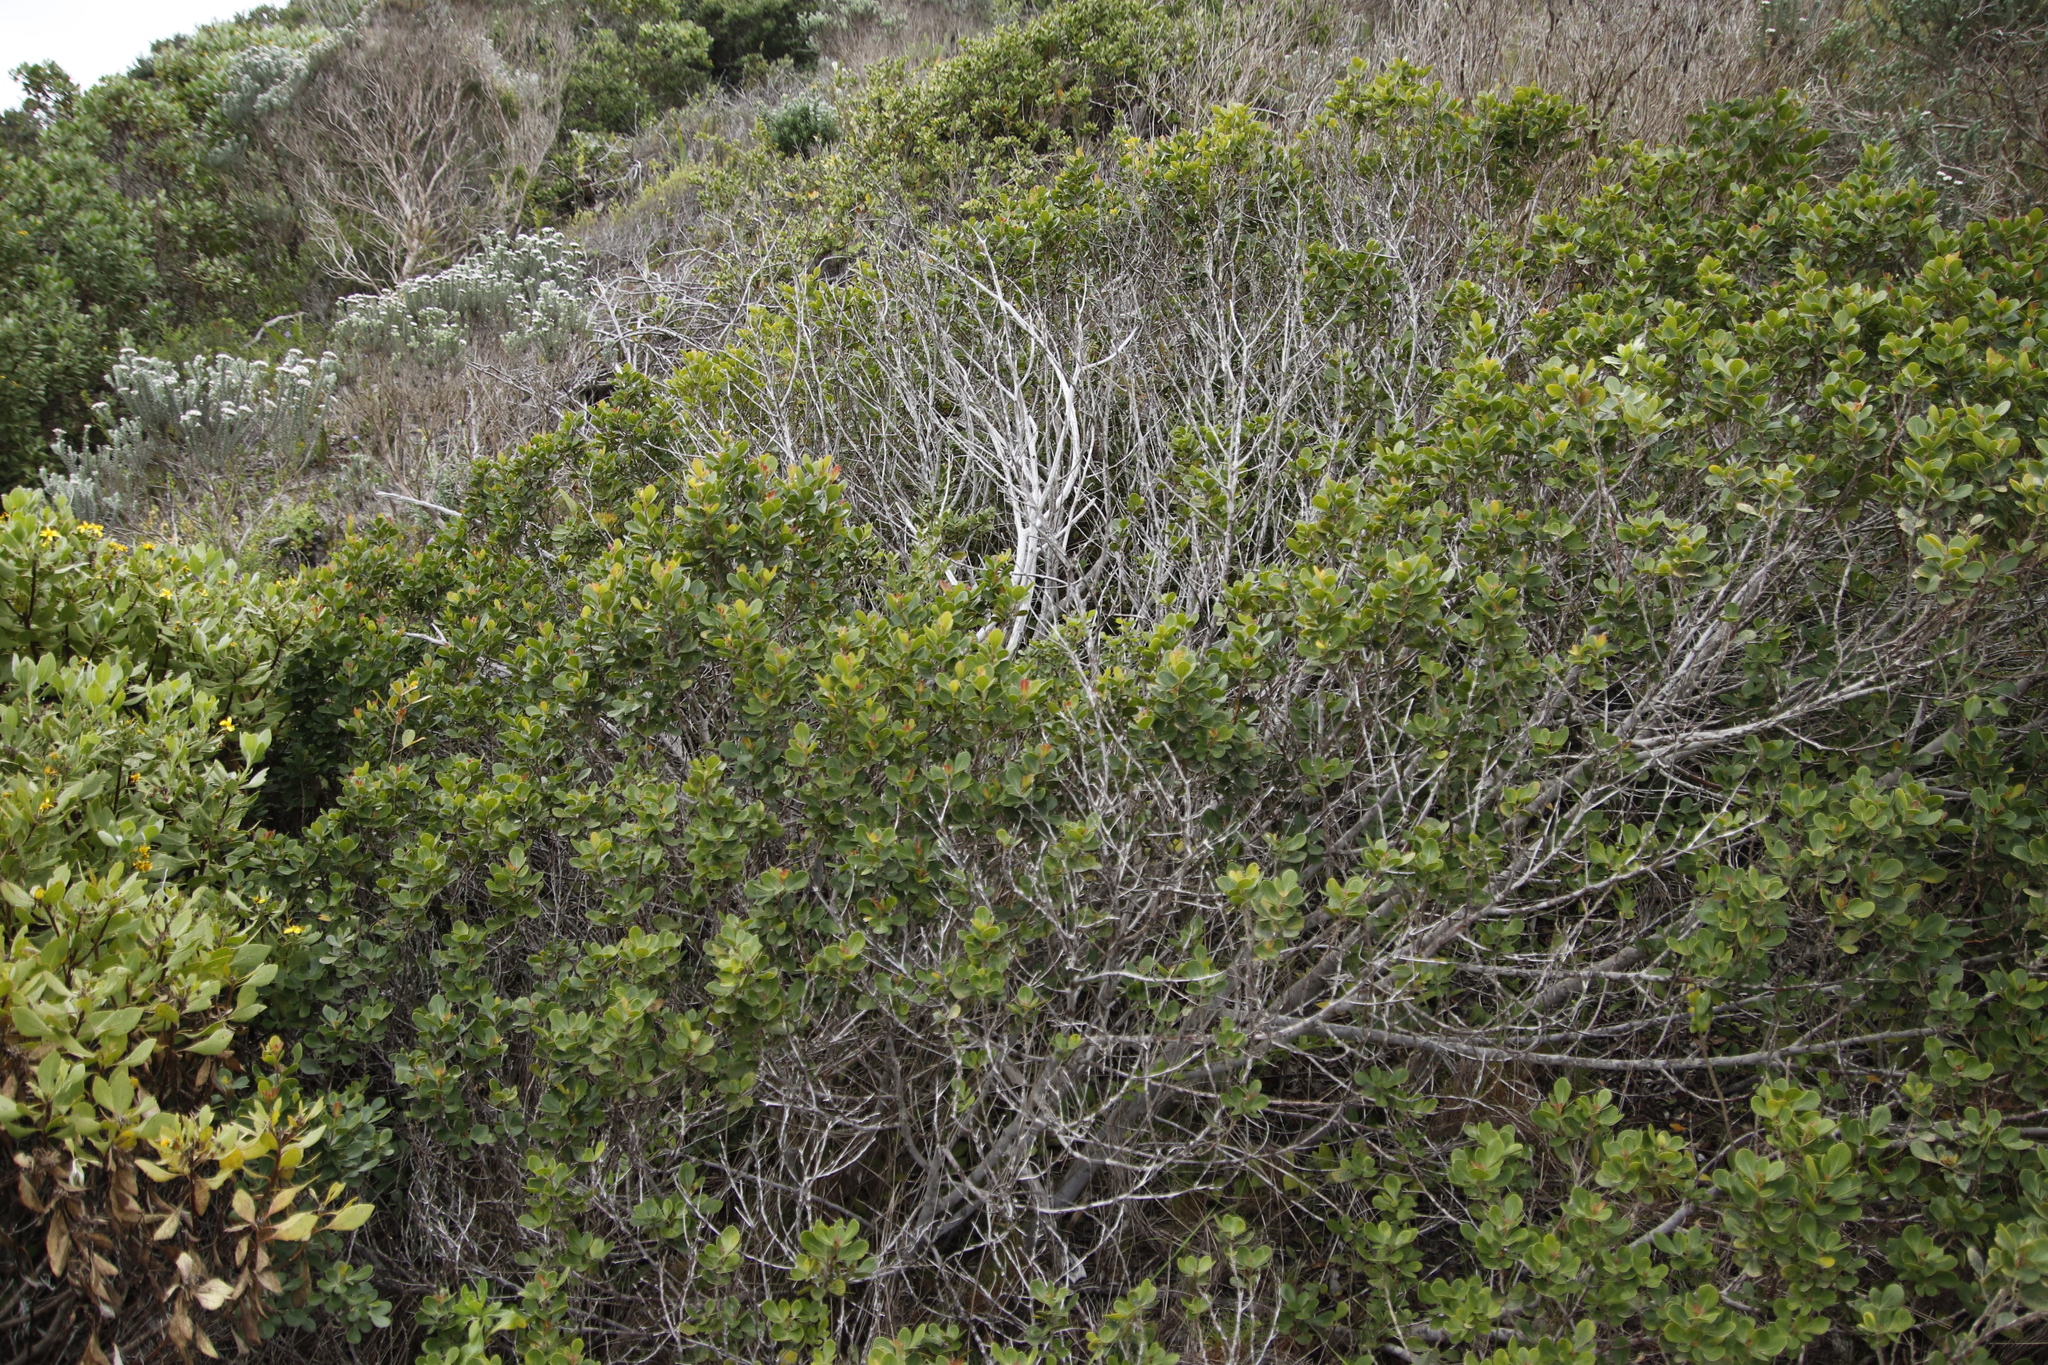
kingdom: Plantae
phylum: Tracheophyta
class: Magnoliopsida
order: Sapindales
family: Anacardiaceae
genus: Searsia
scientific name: Searsia lucida
